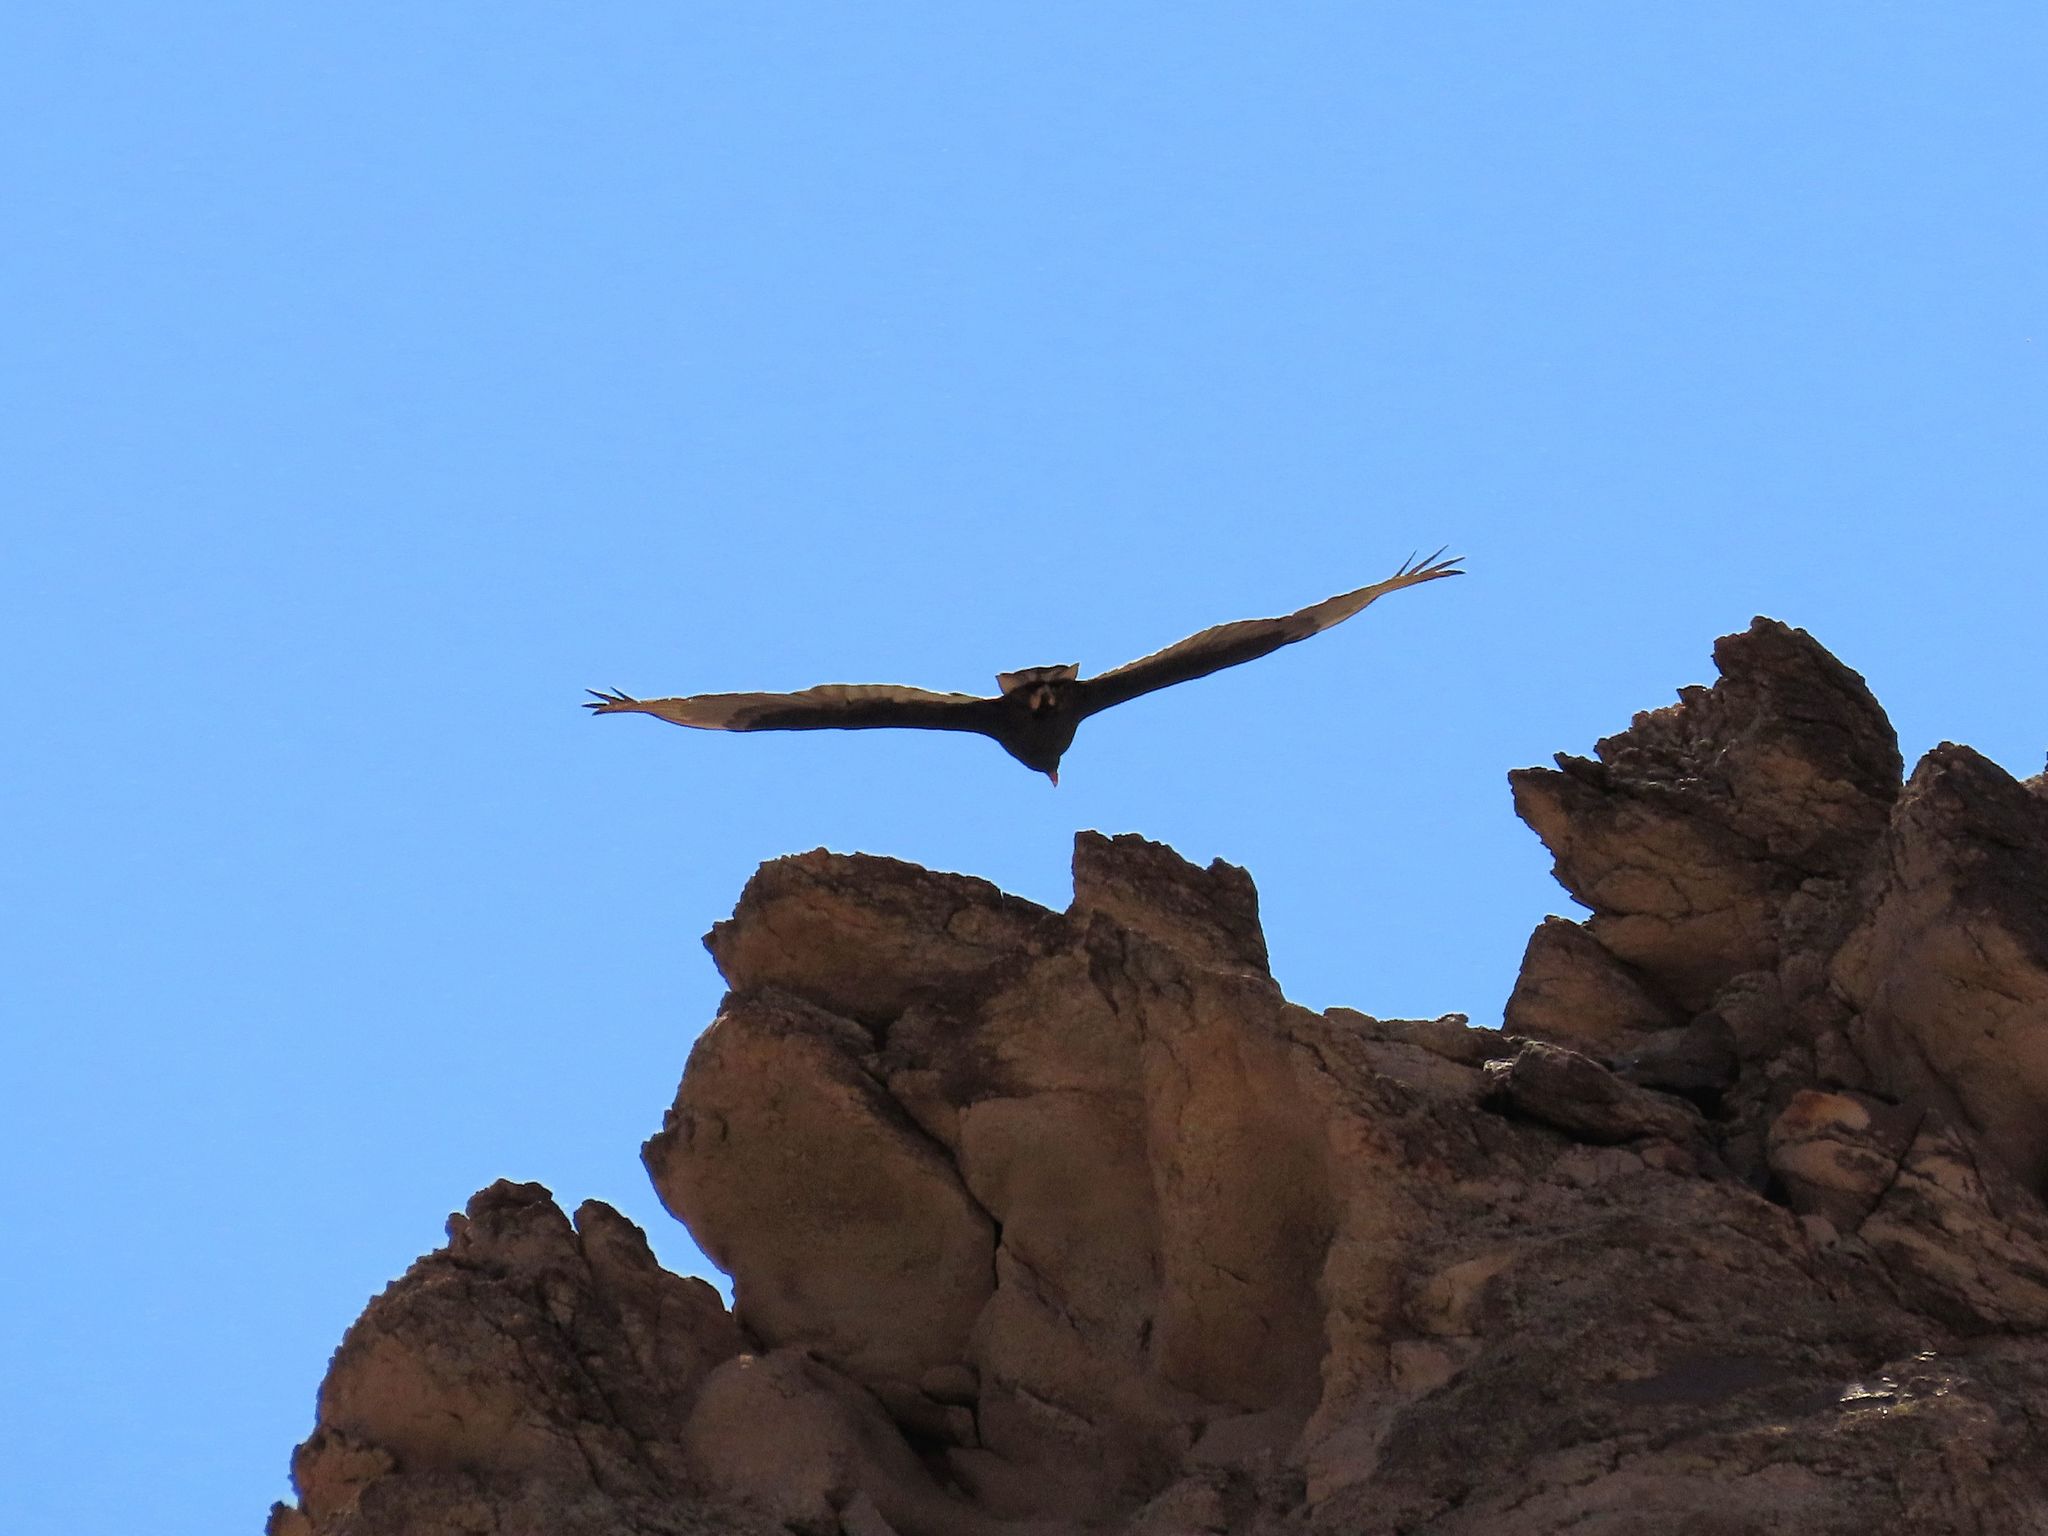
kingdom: Animalia
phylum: Chordata
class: Aves
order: Accipitriformes
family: Cathartidae
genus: Cathartes
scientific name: Cathartes aura
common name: Turkey vulture
